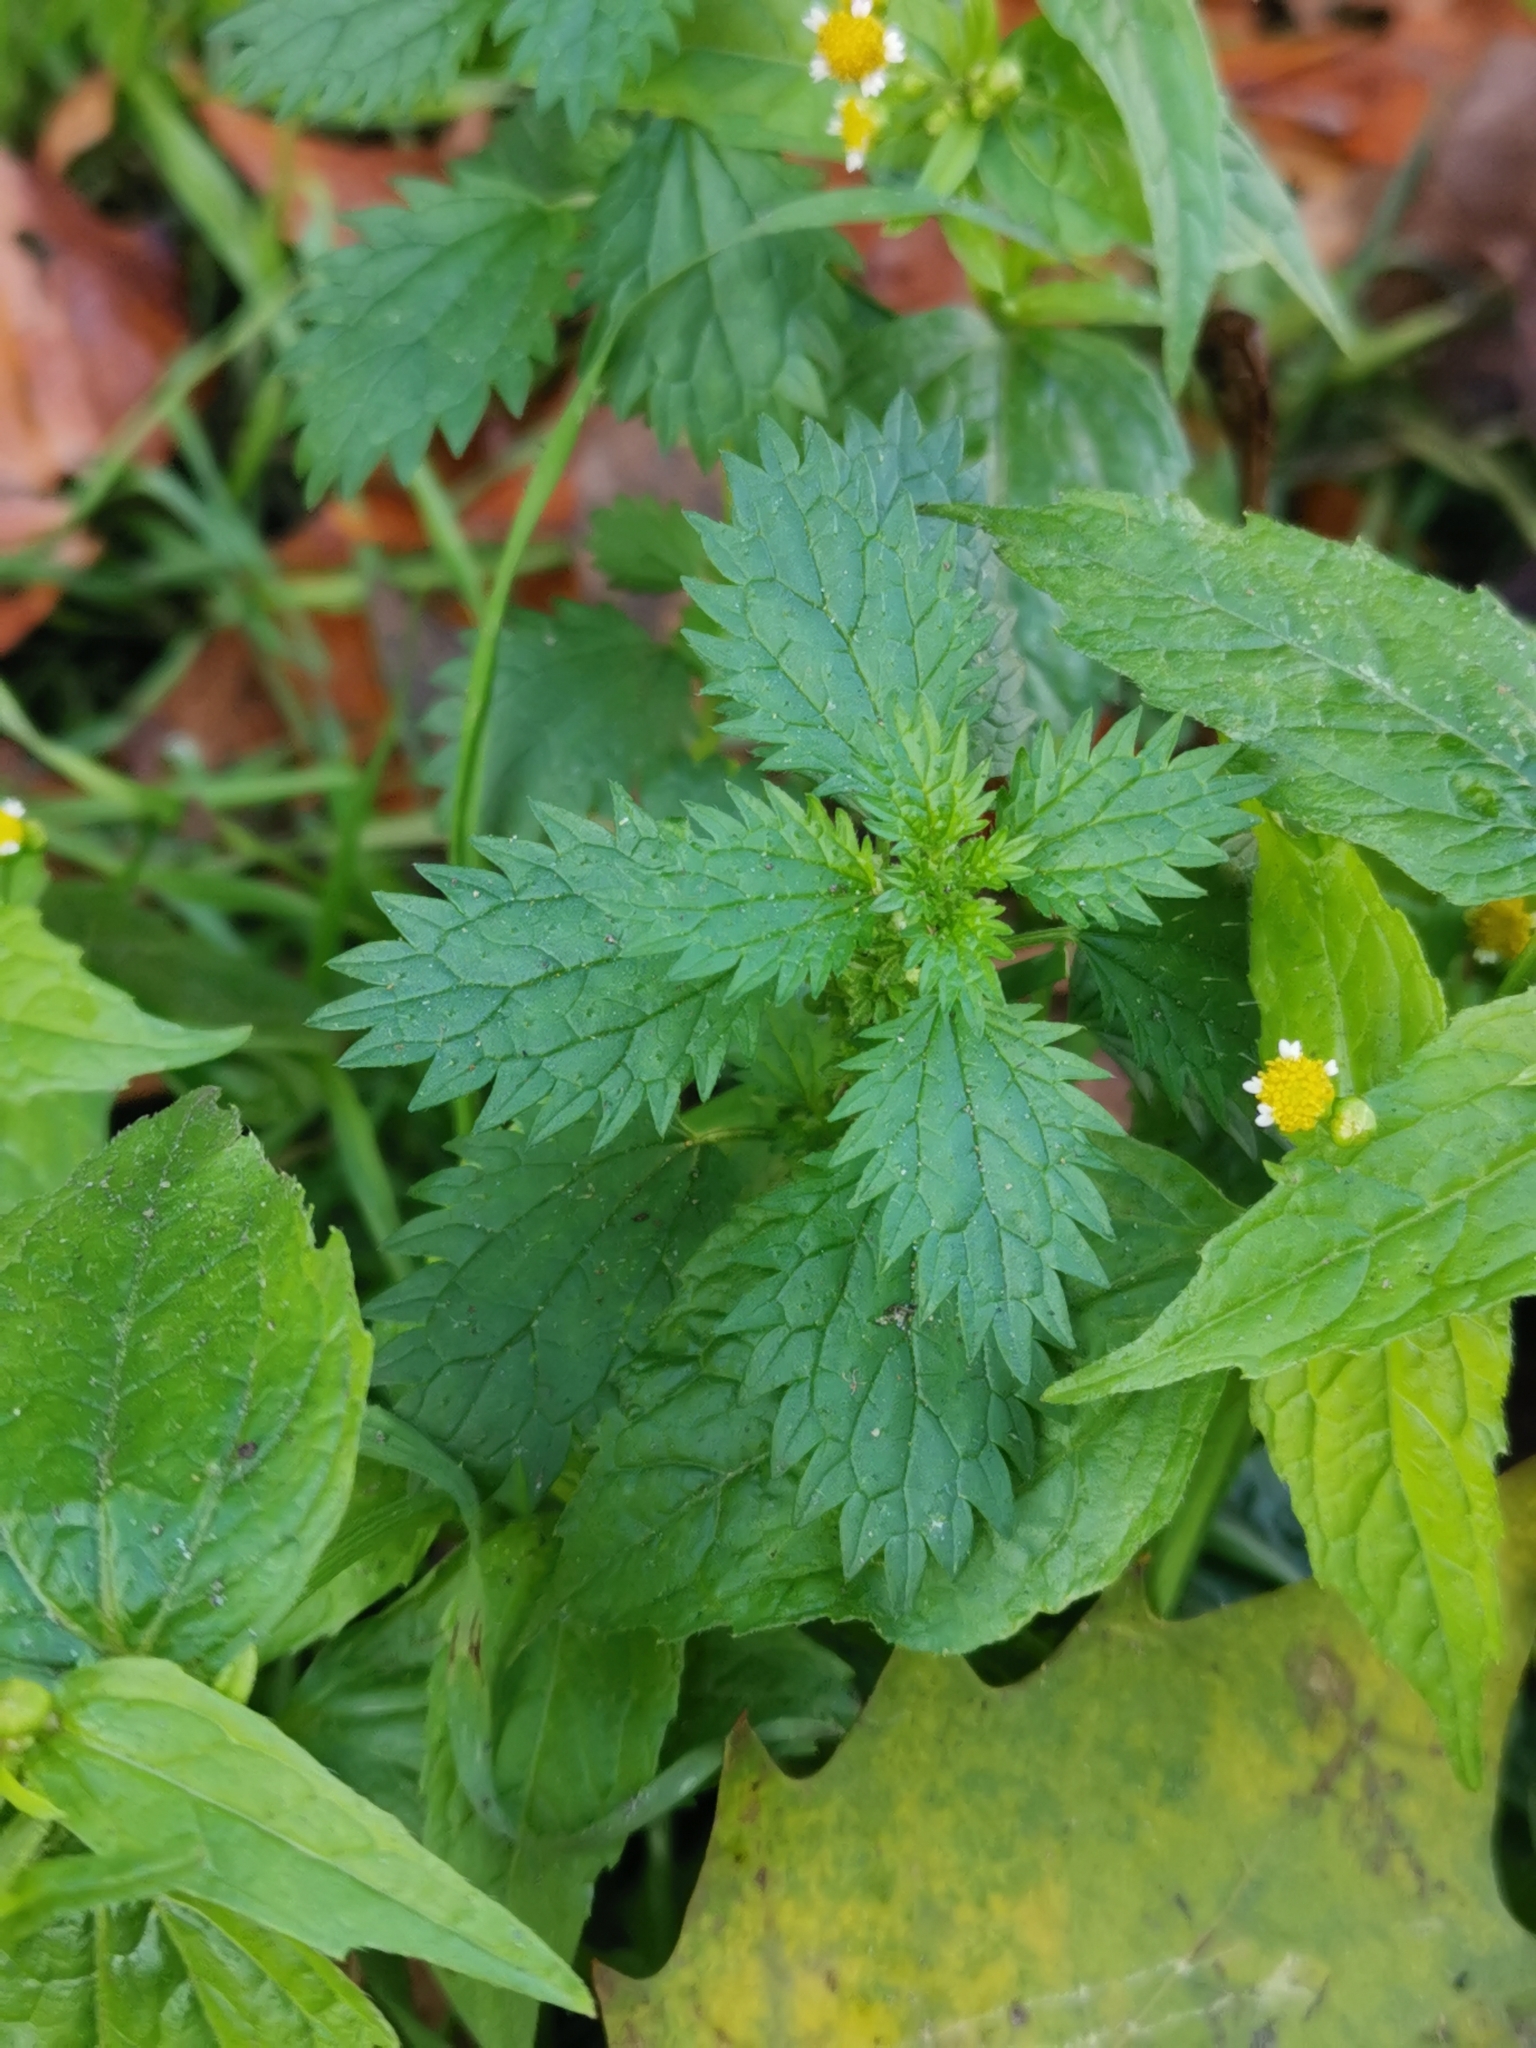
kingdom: Plantae
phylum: Tracheophyta
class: Magnoliopsida
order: Rosales
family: Urticaceae
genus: Urtica
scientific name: Urtica urens
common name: Dwarf nettle
